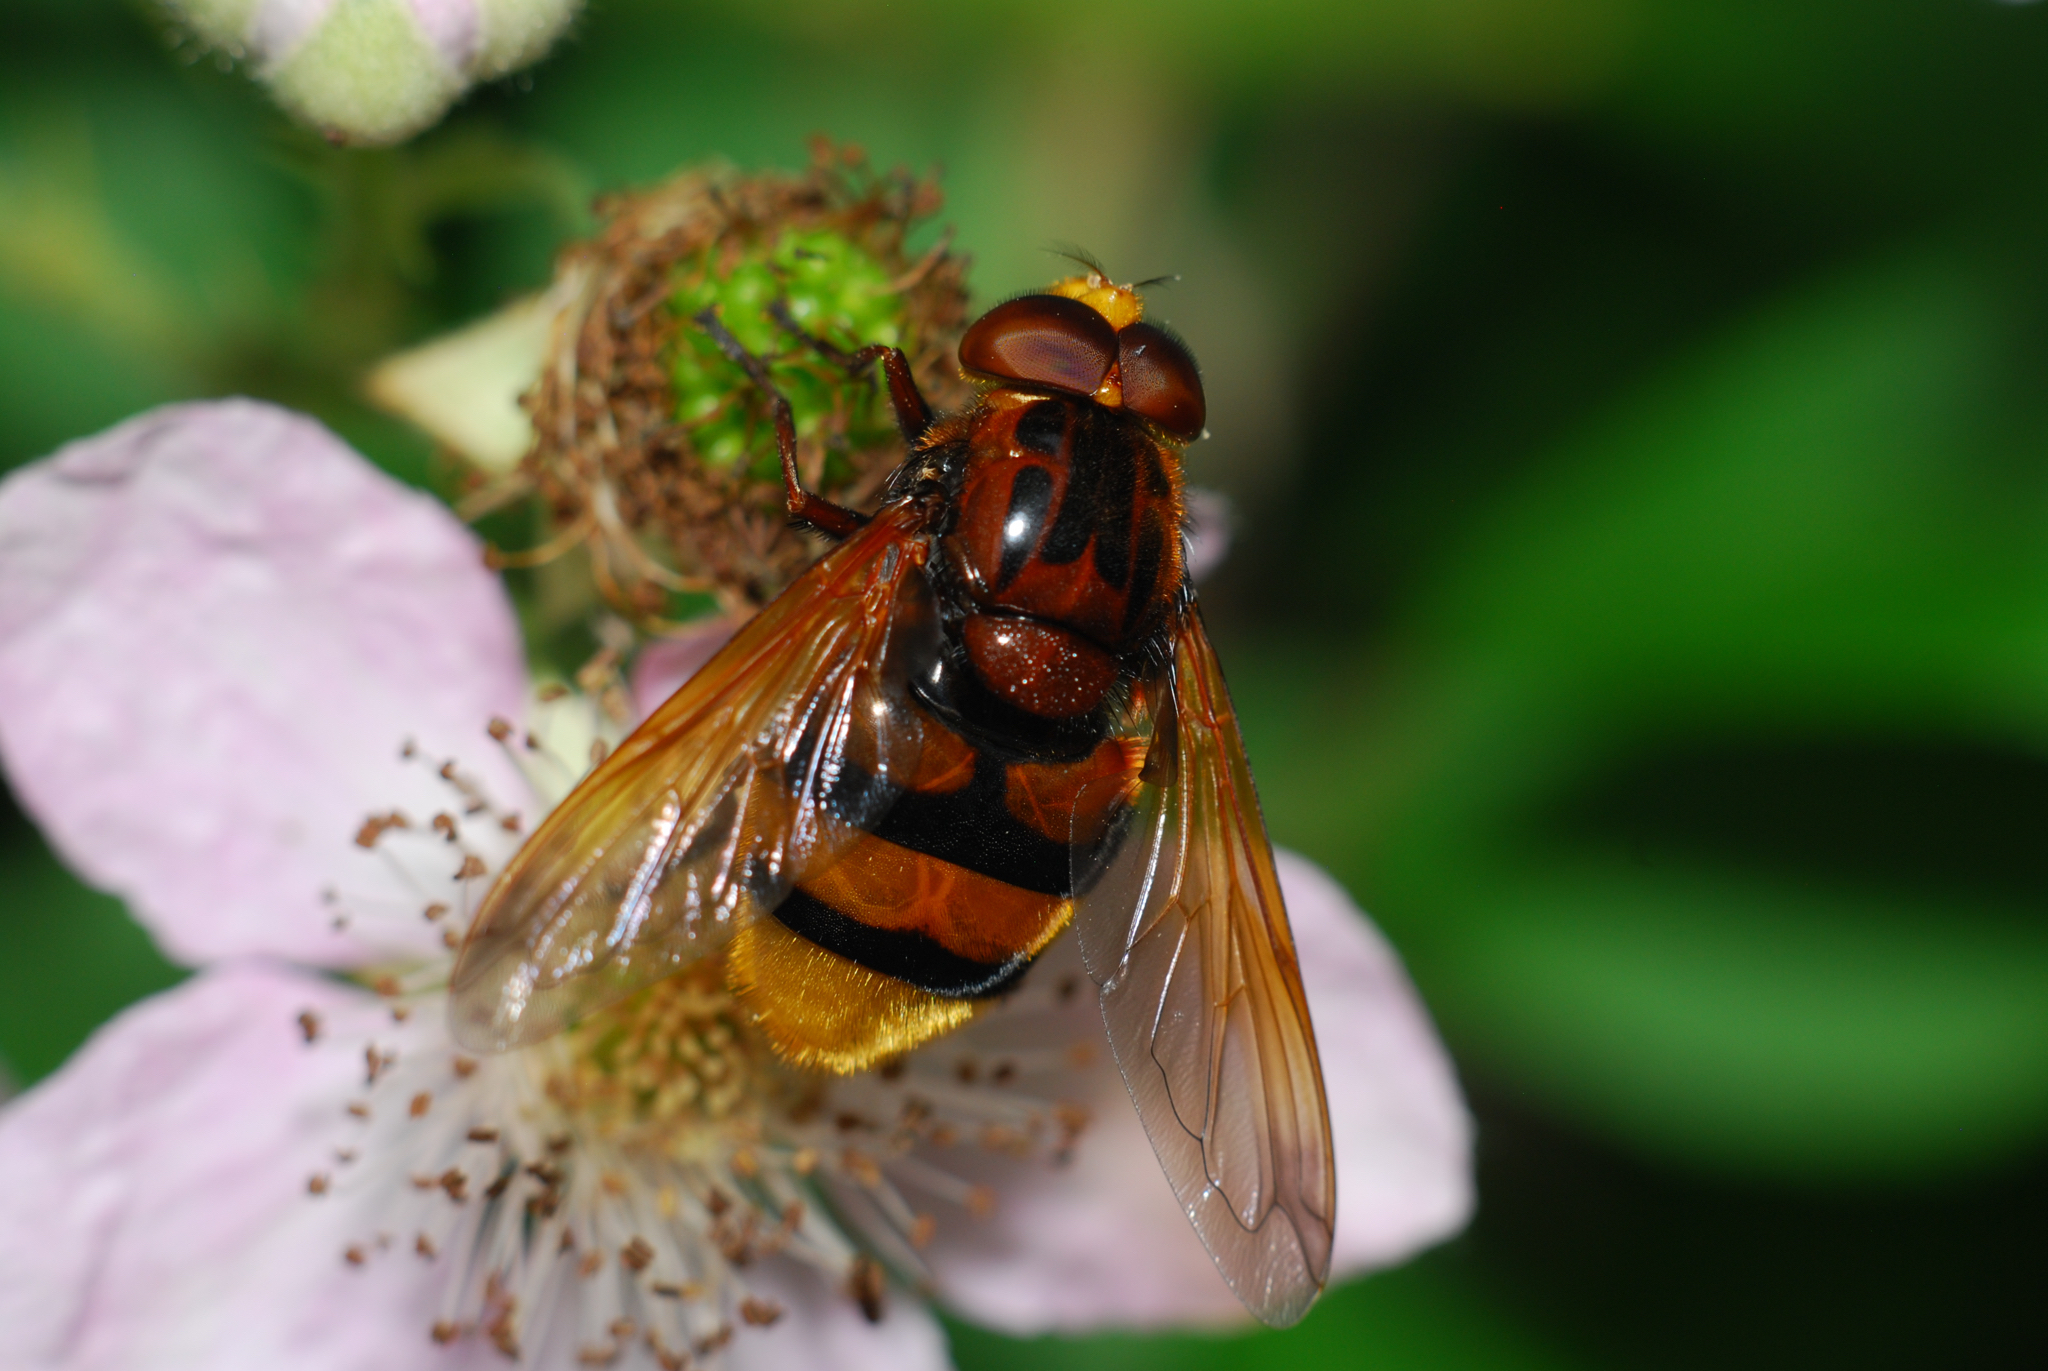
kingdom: Animalia
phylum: Arthropoda
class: Insecta
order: Diptera
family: Syrphidae
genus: Volucella
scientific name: Volucella zonaria
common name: Hornet hoverfly
